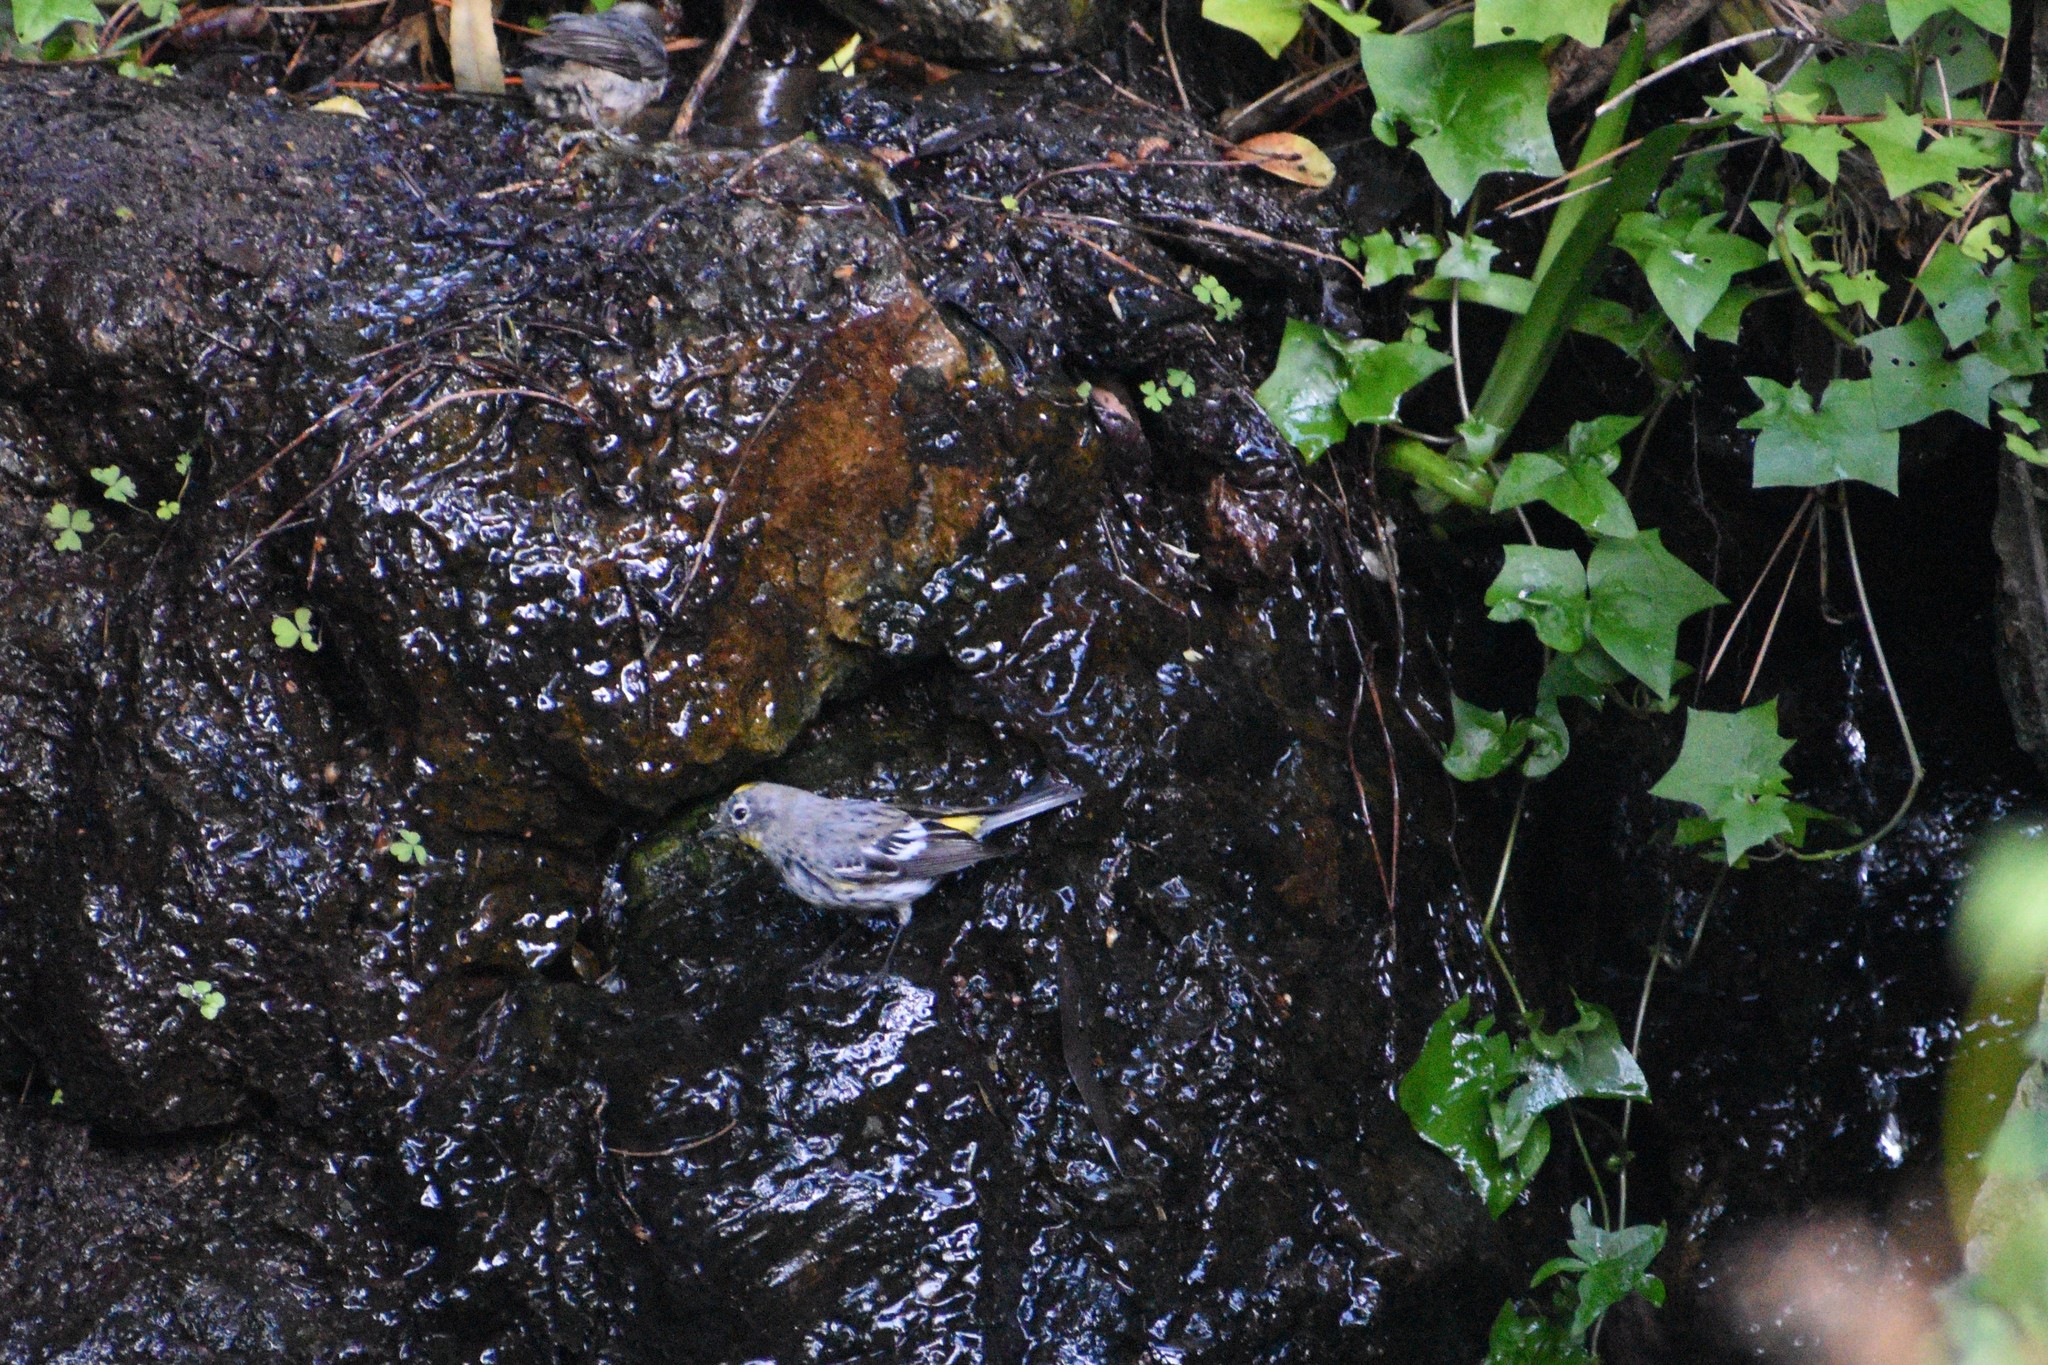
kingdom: Animalia
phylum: Chordata
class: Aves
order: Passeriformes
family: Parulidae
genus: Setophaga
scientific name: Setophaga coronata
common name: Myrtle warbler
